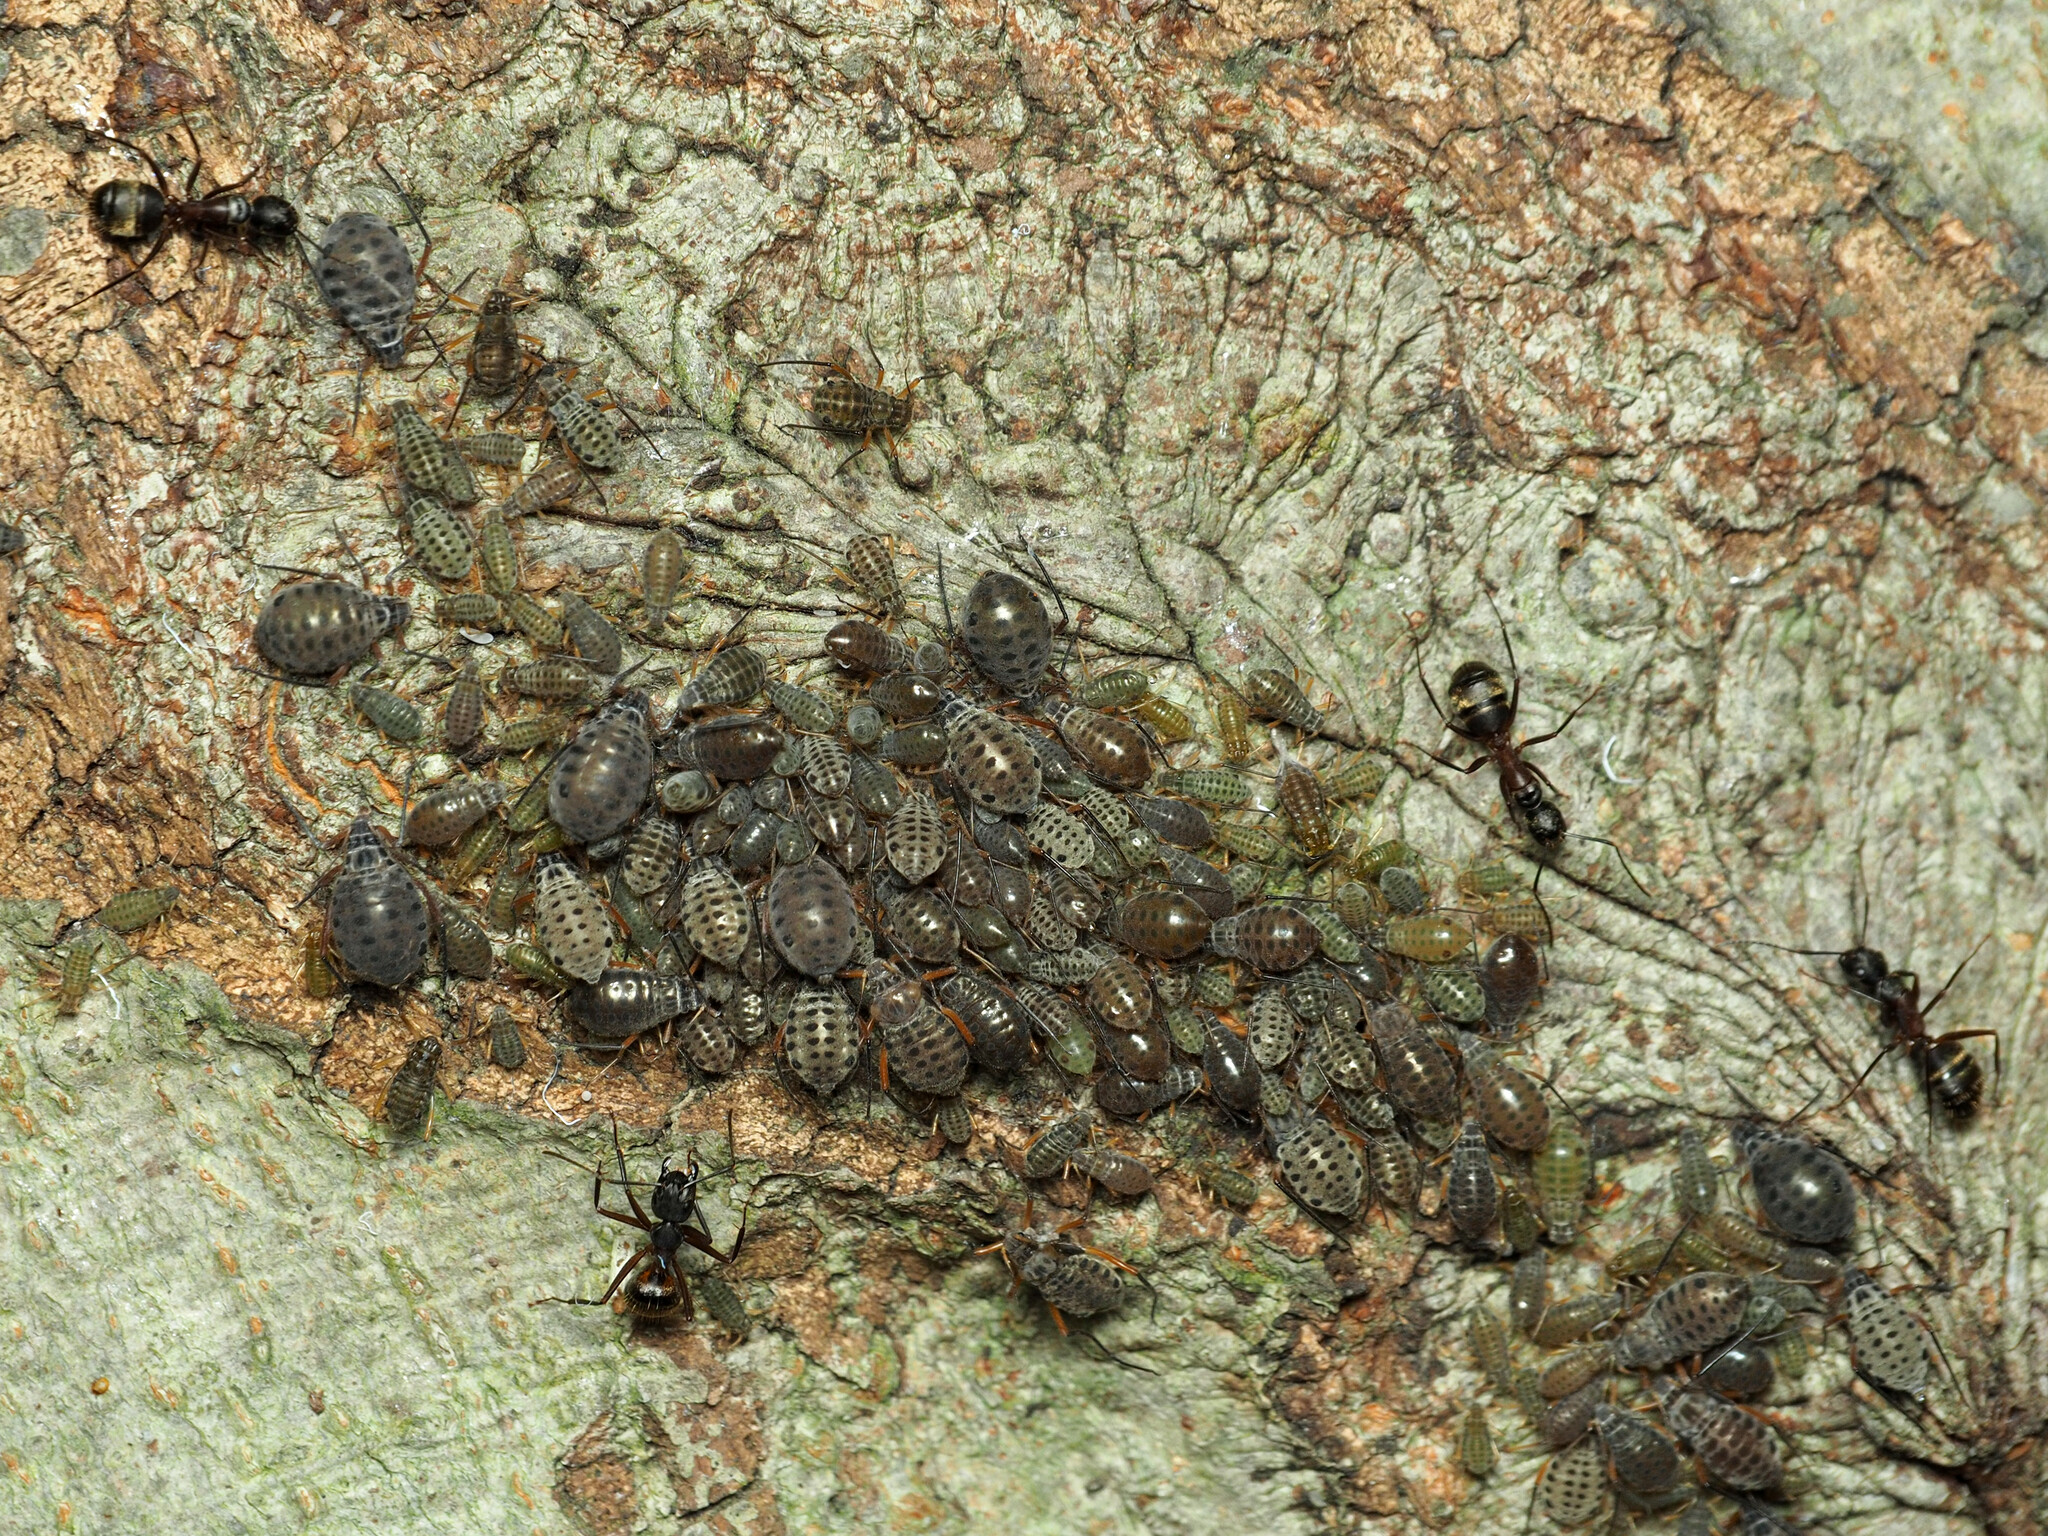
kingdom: Animalia
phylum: Arthropoda
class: Insecta
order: Hemiptera
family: Aphididae
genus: Longistigma
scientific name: Longistigma caryae
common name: Giant bark aphid
